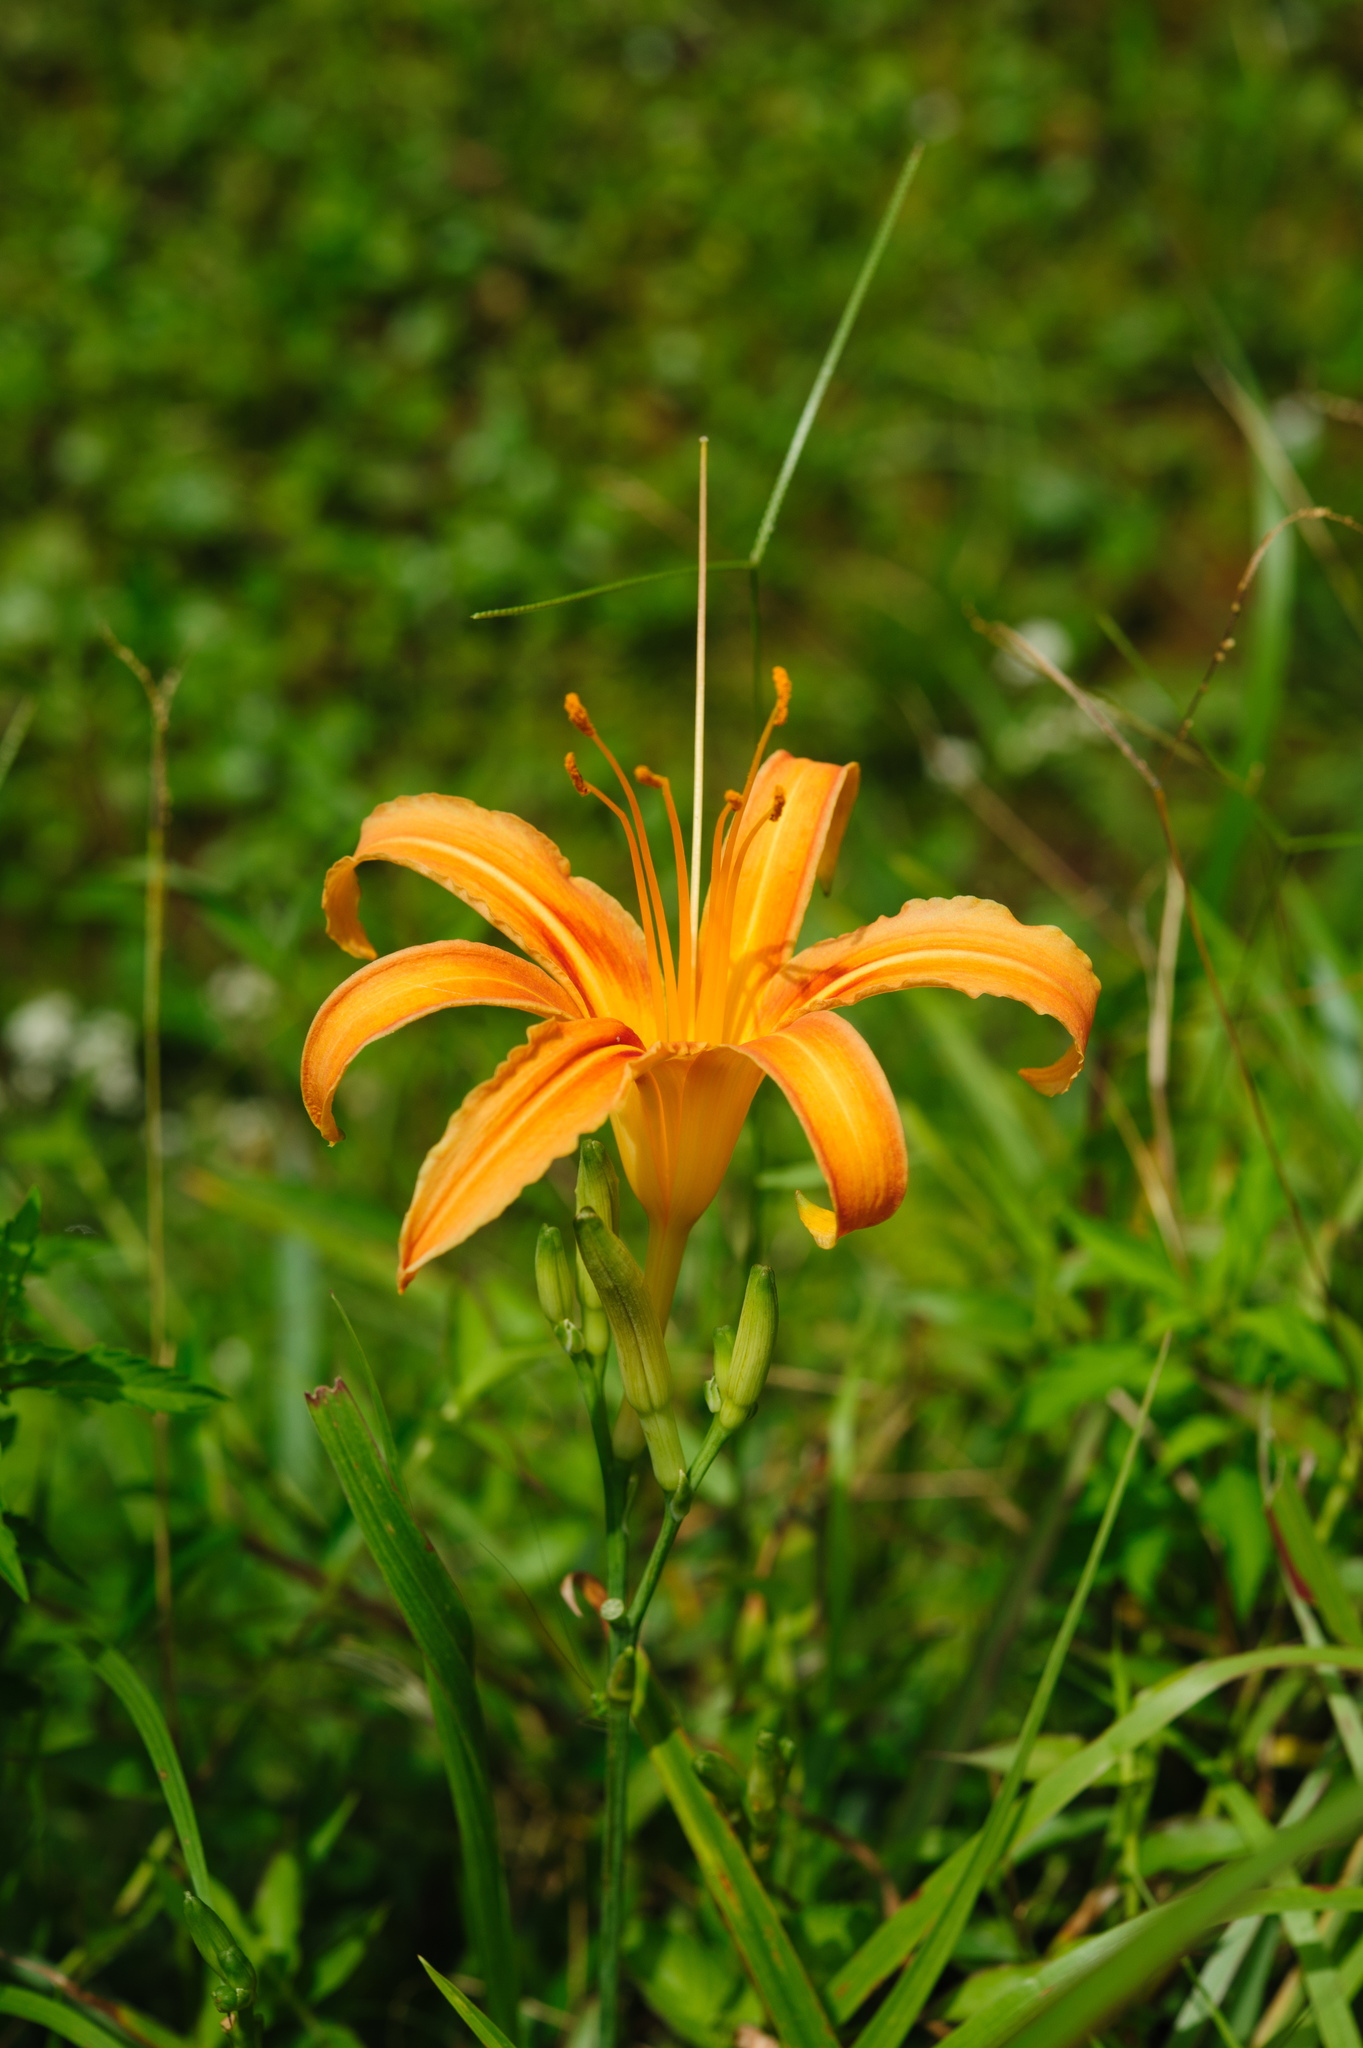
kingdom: Plantae
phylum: Tracheophyta
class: Liliopsida
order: Asparagales
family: Asphodelaceae
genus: Hemerocallis
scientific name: Hemerocallis fulva
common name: Orange day-lily
